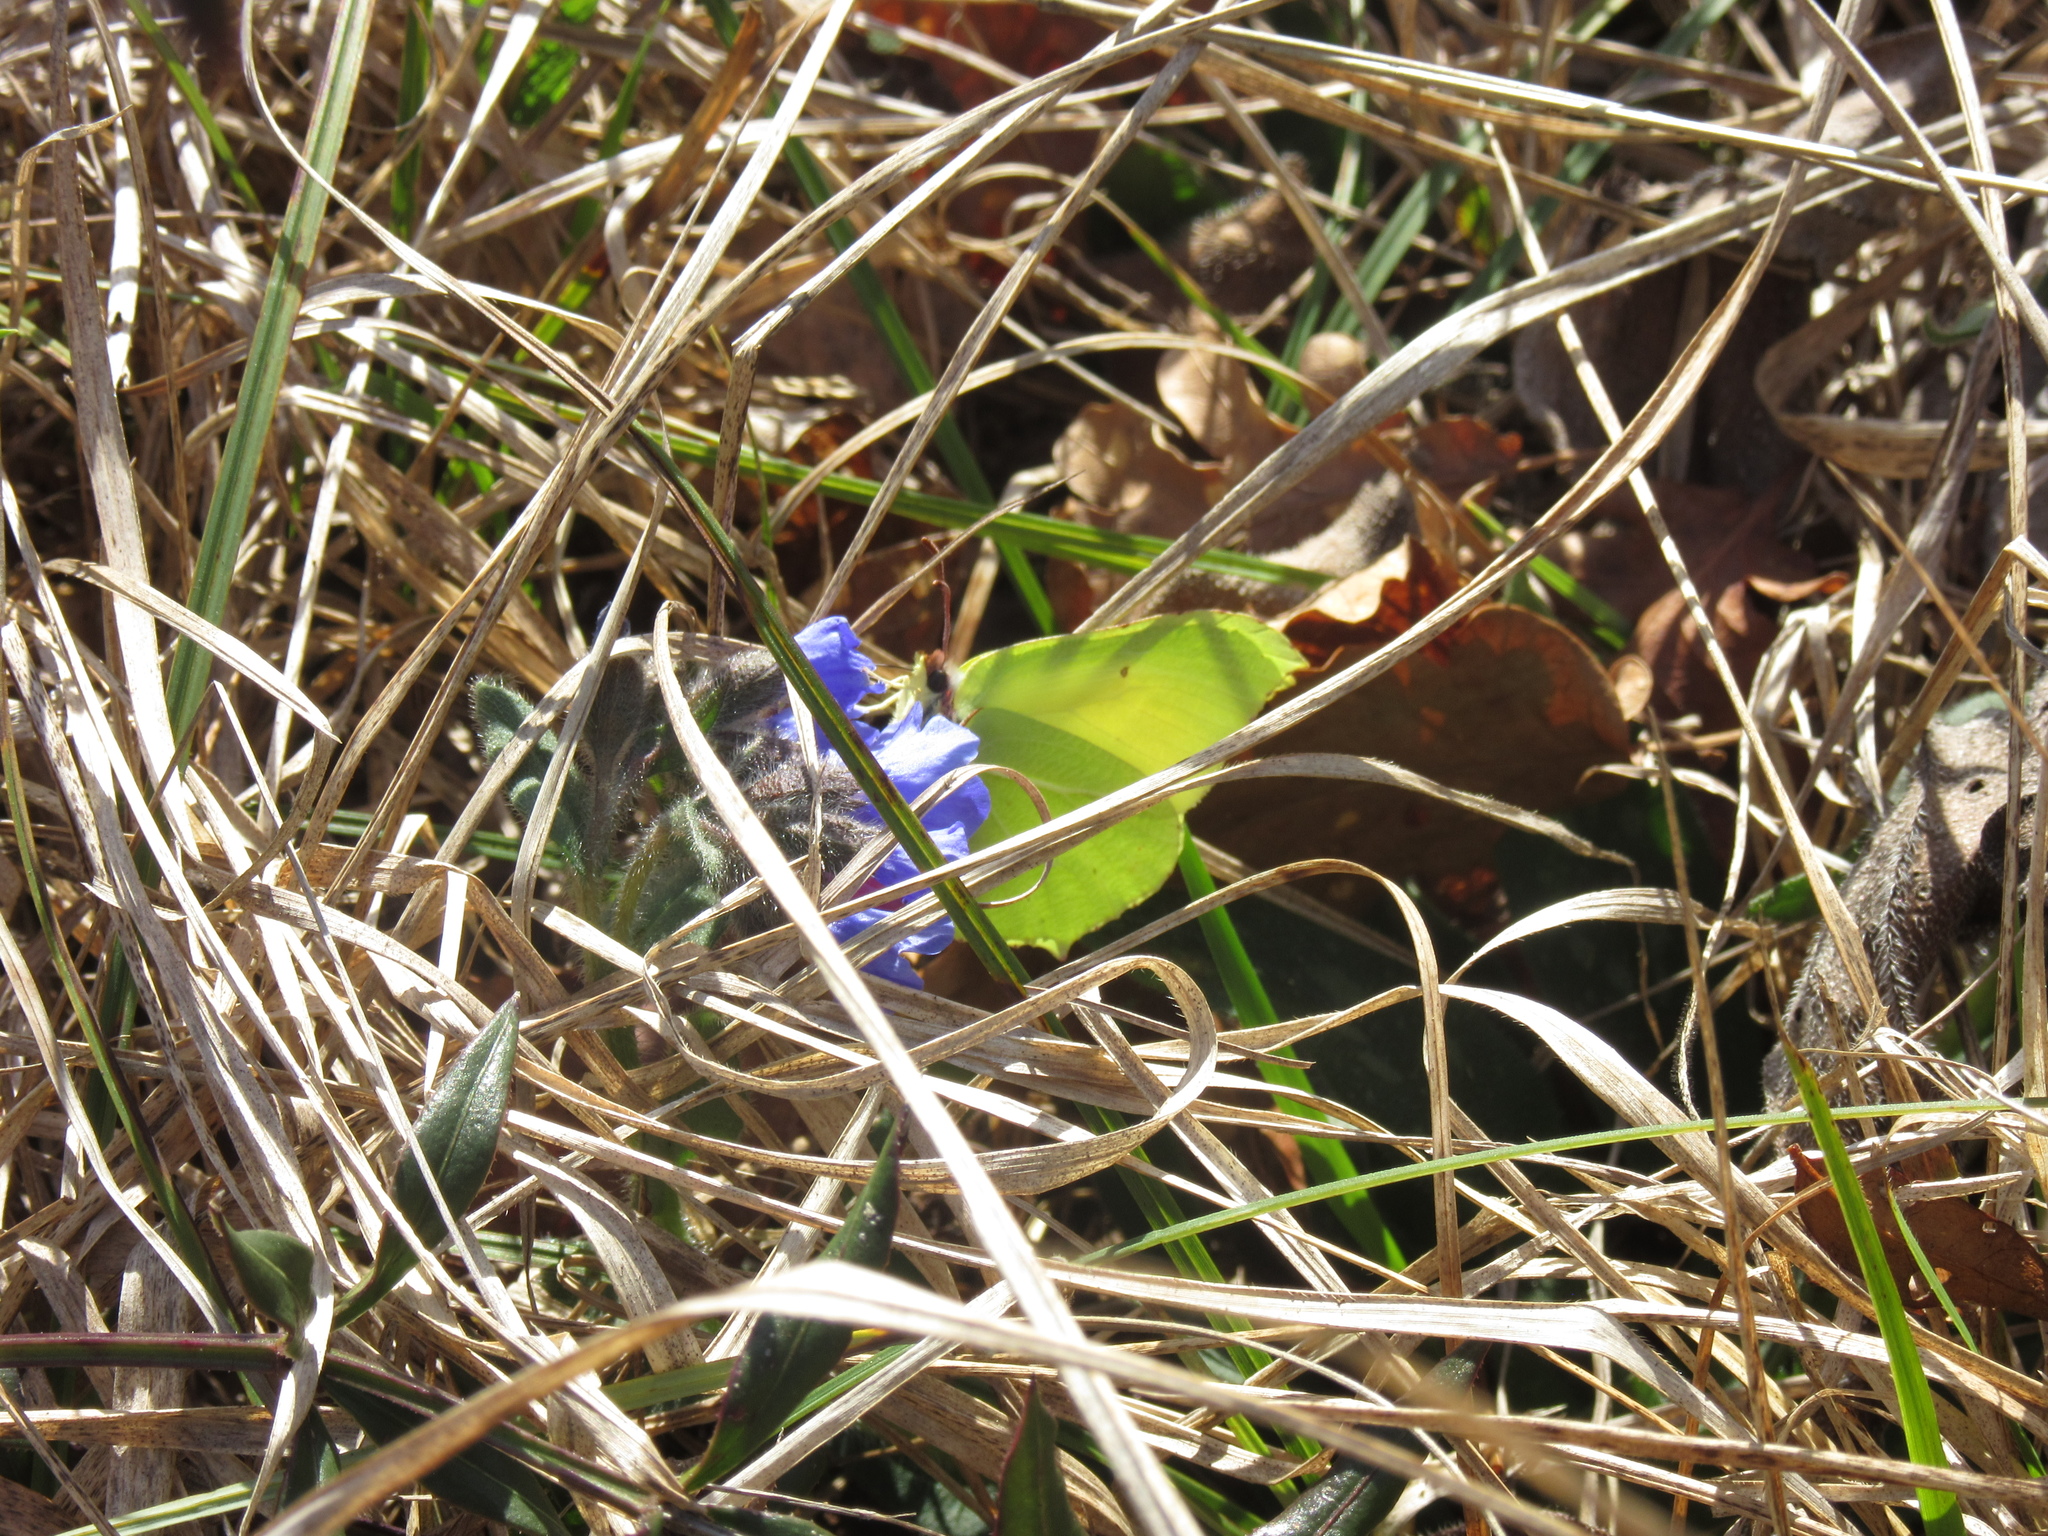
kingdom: Animalia
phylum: Arthropoda
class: Insecta
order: Lepidoptera
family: Pieridae
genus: Gonepteryx
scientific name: Gonepteryx rhamni
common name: Brimstone
